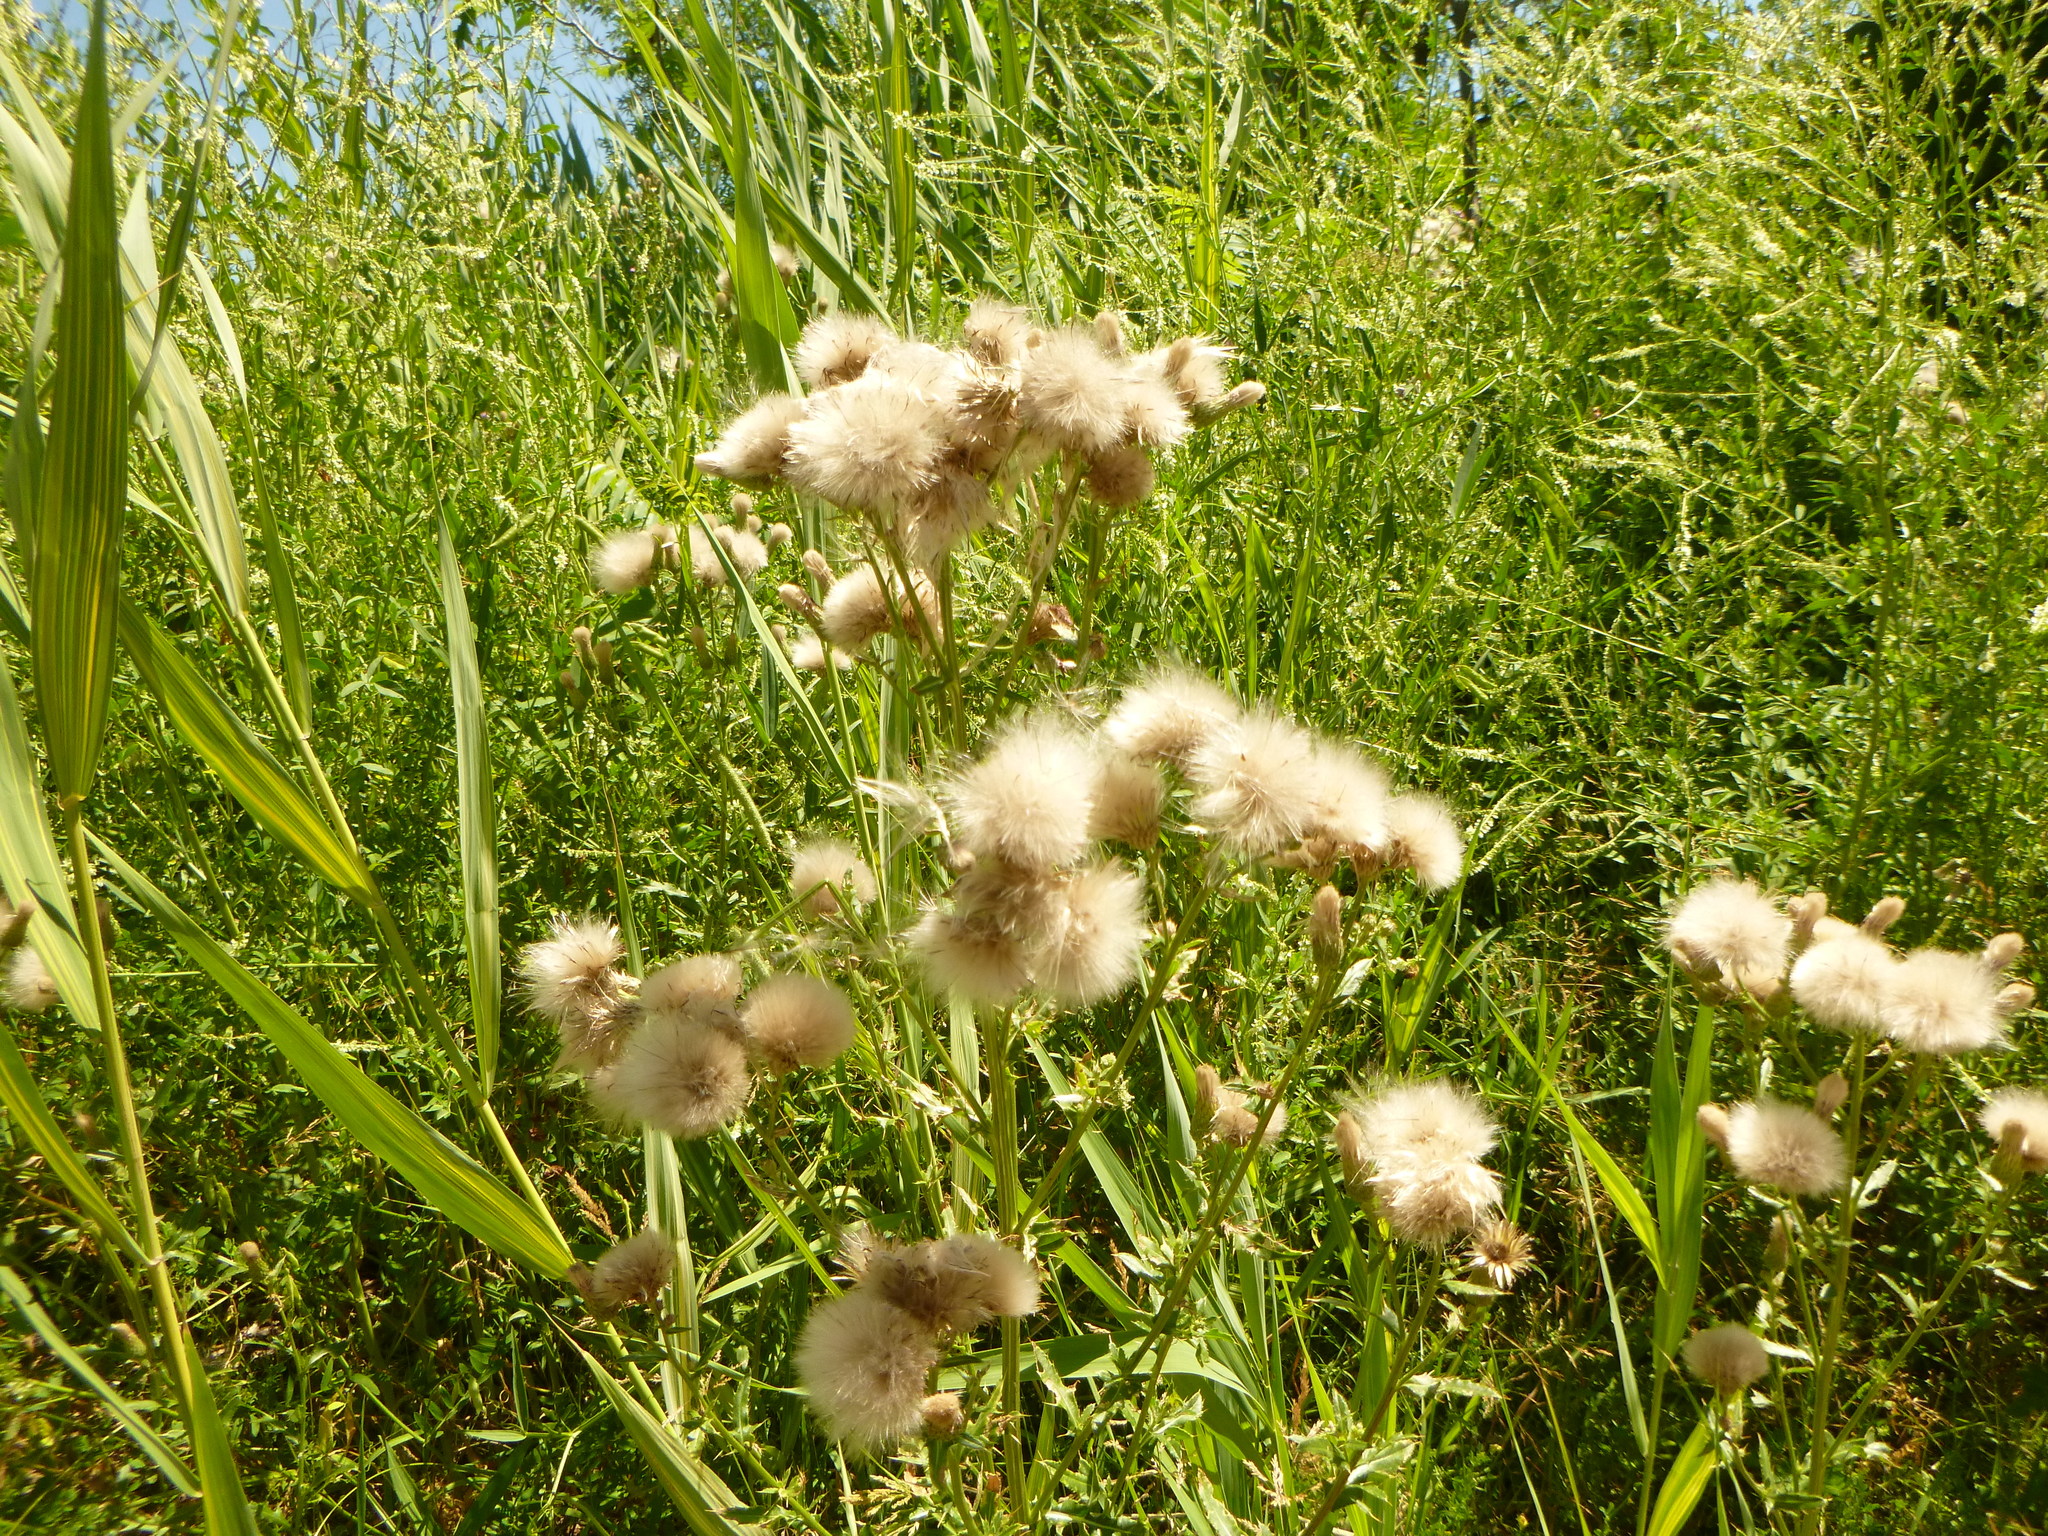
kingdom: Plantae
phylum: Tracheophyta
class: Magnoliopsida
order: Asterales
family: Asteraceae
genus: Cirsium
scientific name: Cirsium arvense
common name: Creeping thistle
